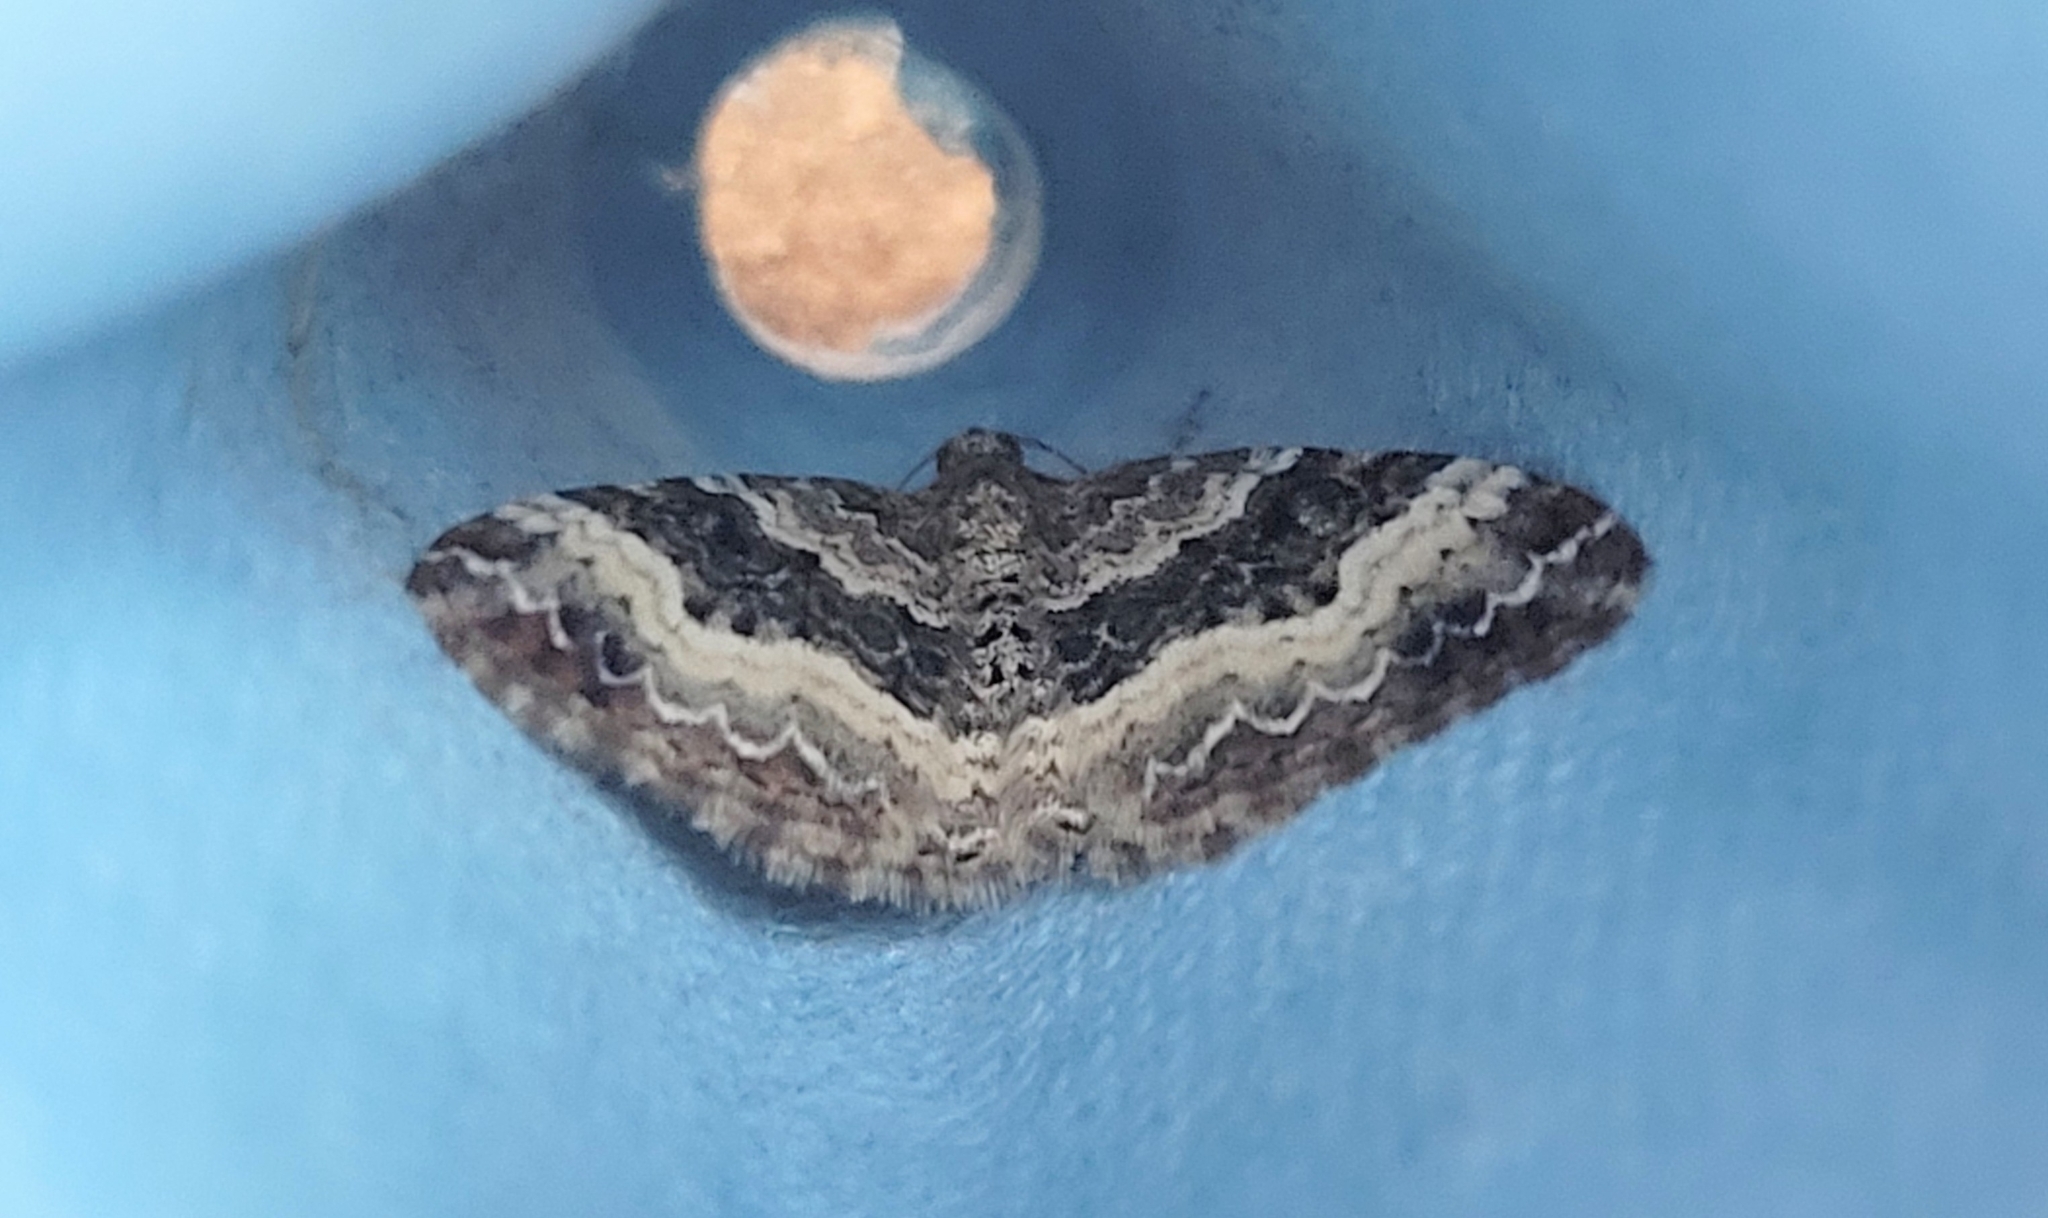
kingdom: Animalia
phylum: Arthropoda
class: Insecta
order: Lepidoptera
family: Geometridae
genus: Epirrhoe
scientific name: Epirrhoe alternata
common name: Common carpet
